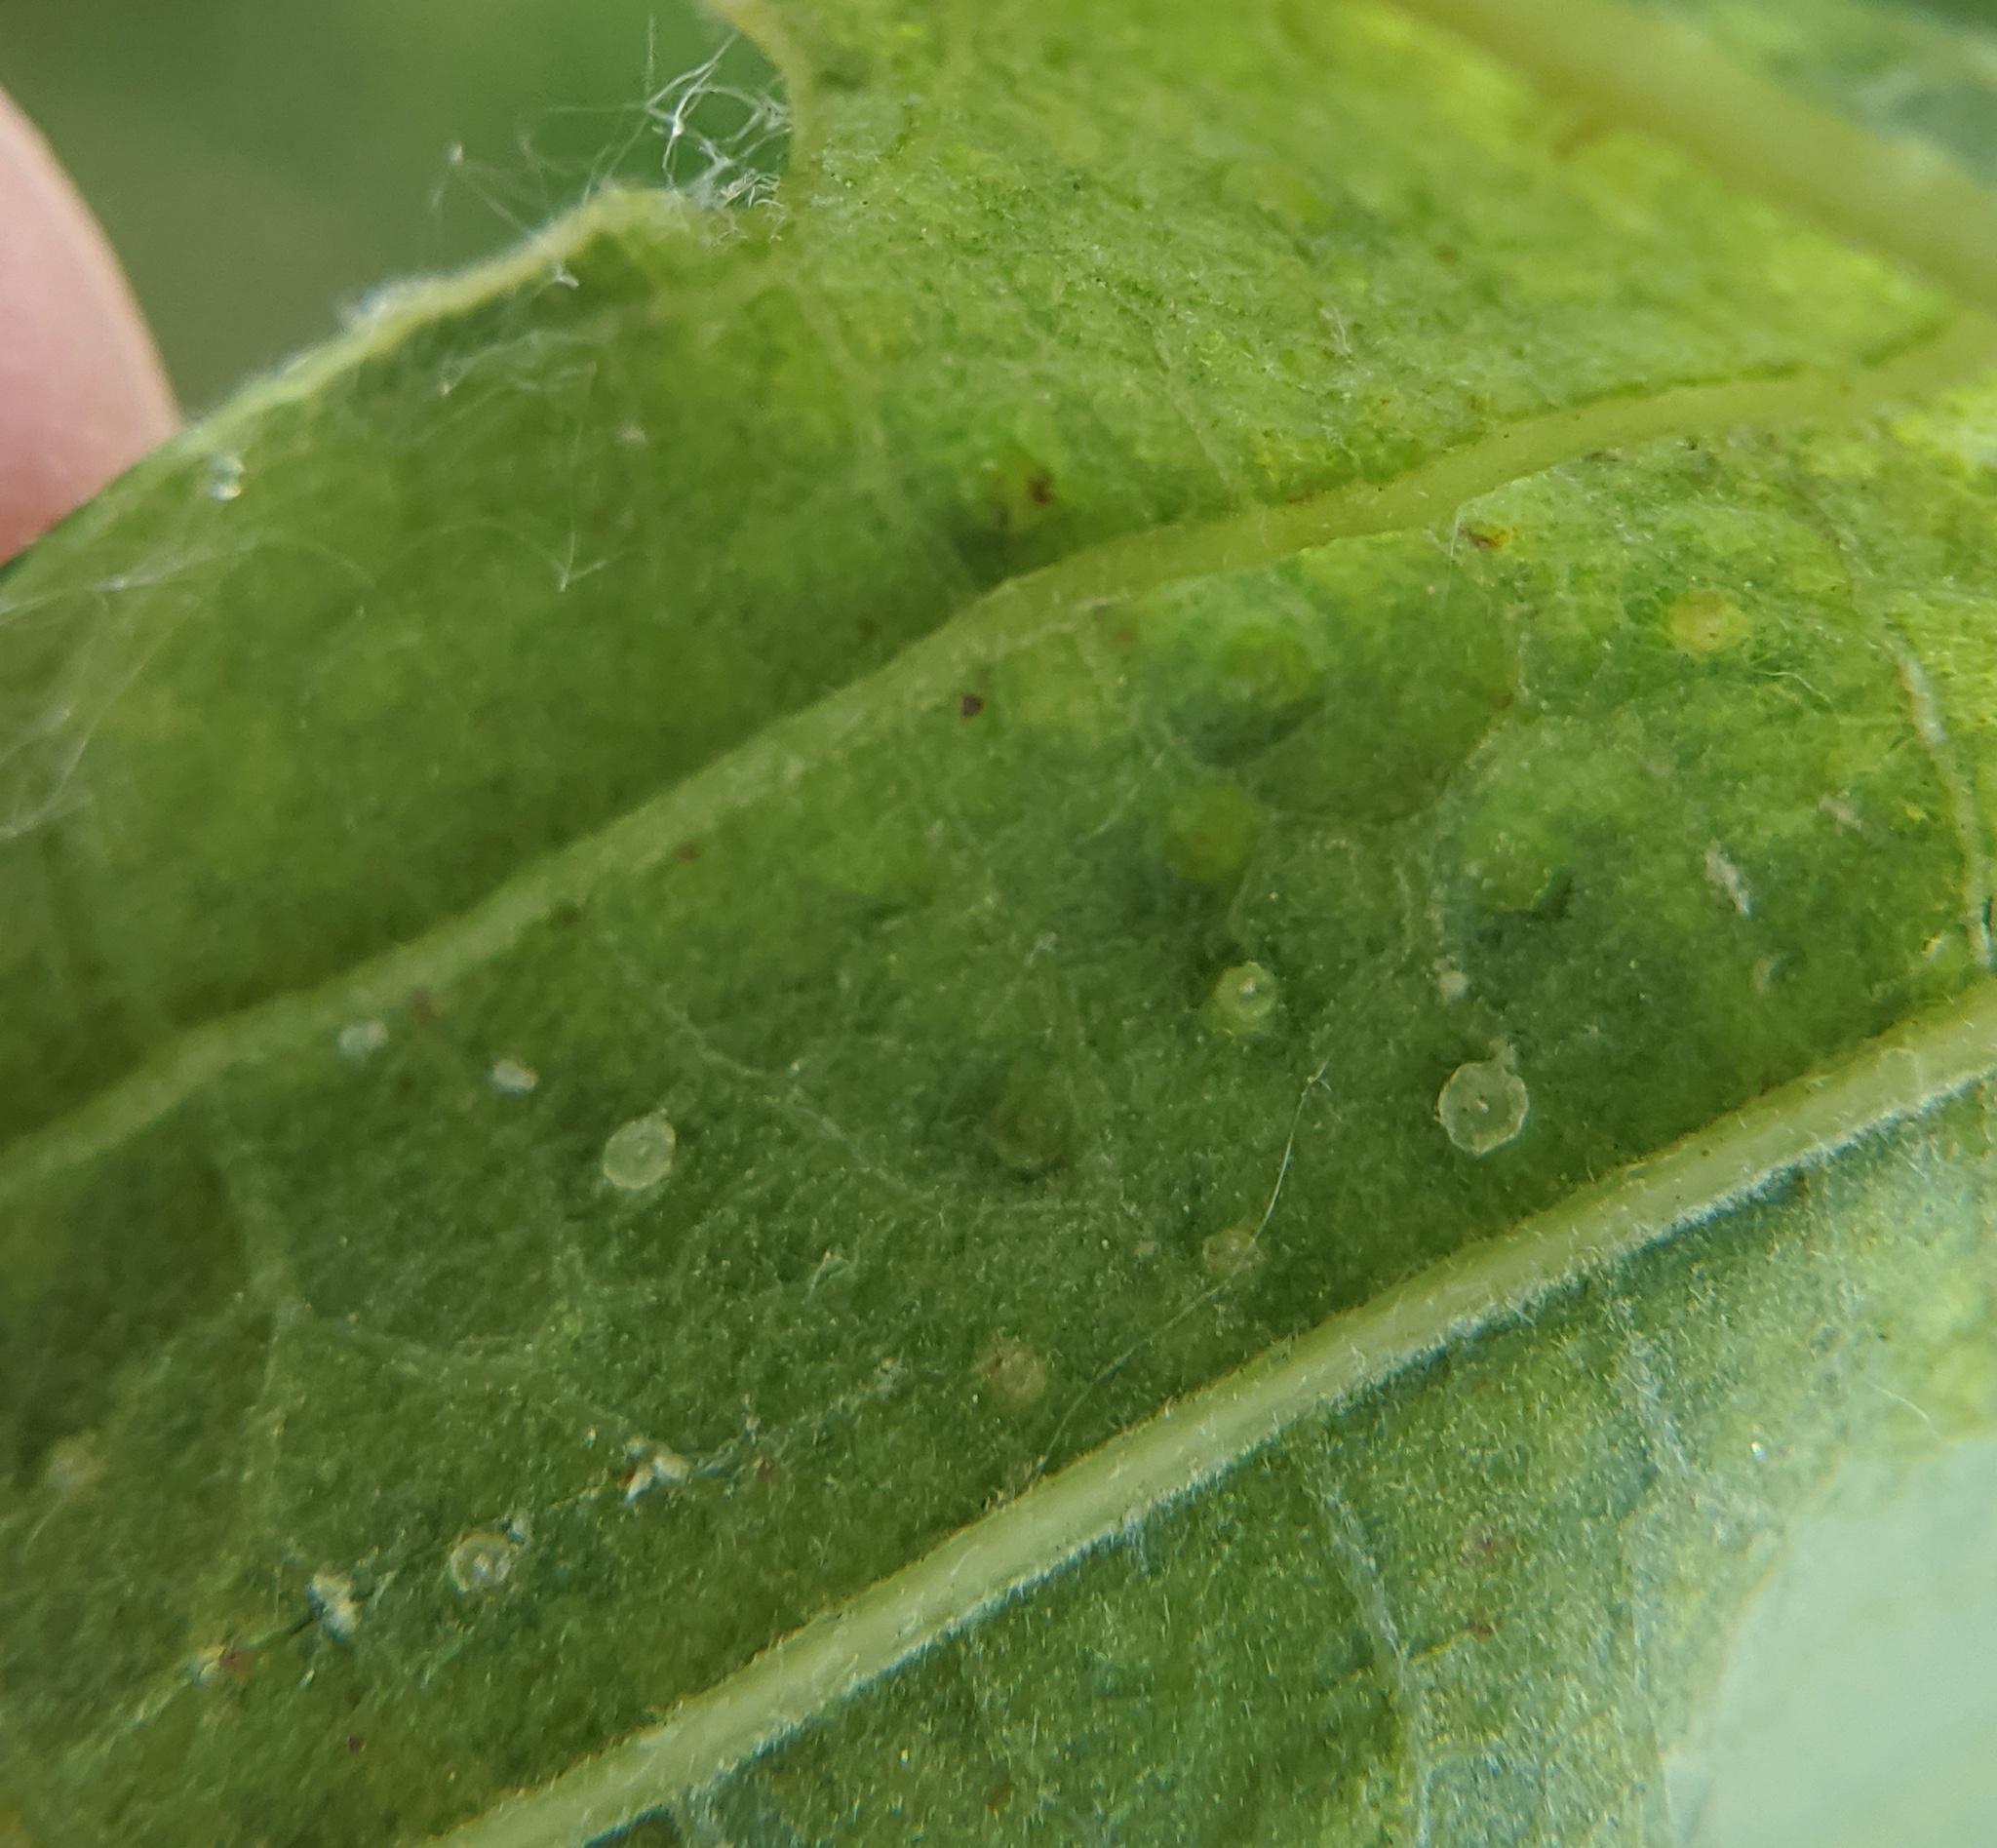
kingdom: Animalia
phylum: Arthropoda
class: Insecta
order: Hymenoptera
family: Cynipidae
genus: Neuroterus
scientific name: Neuroterus saltarius
